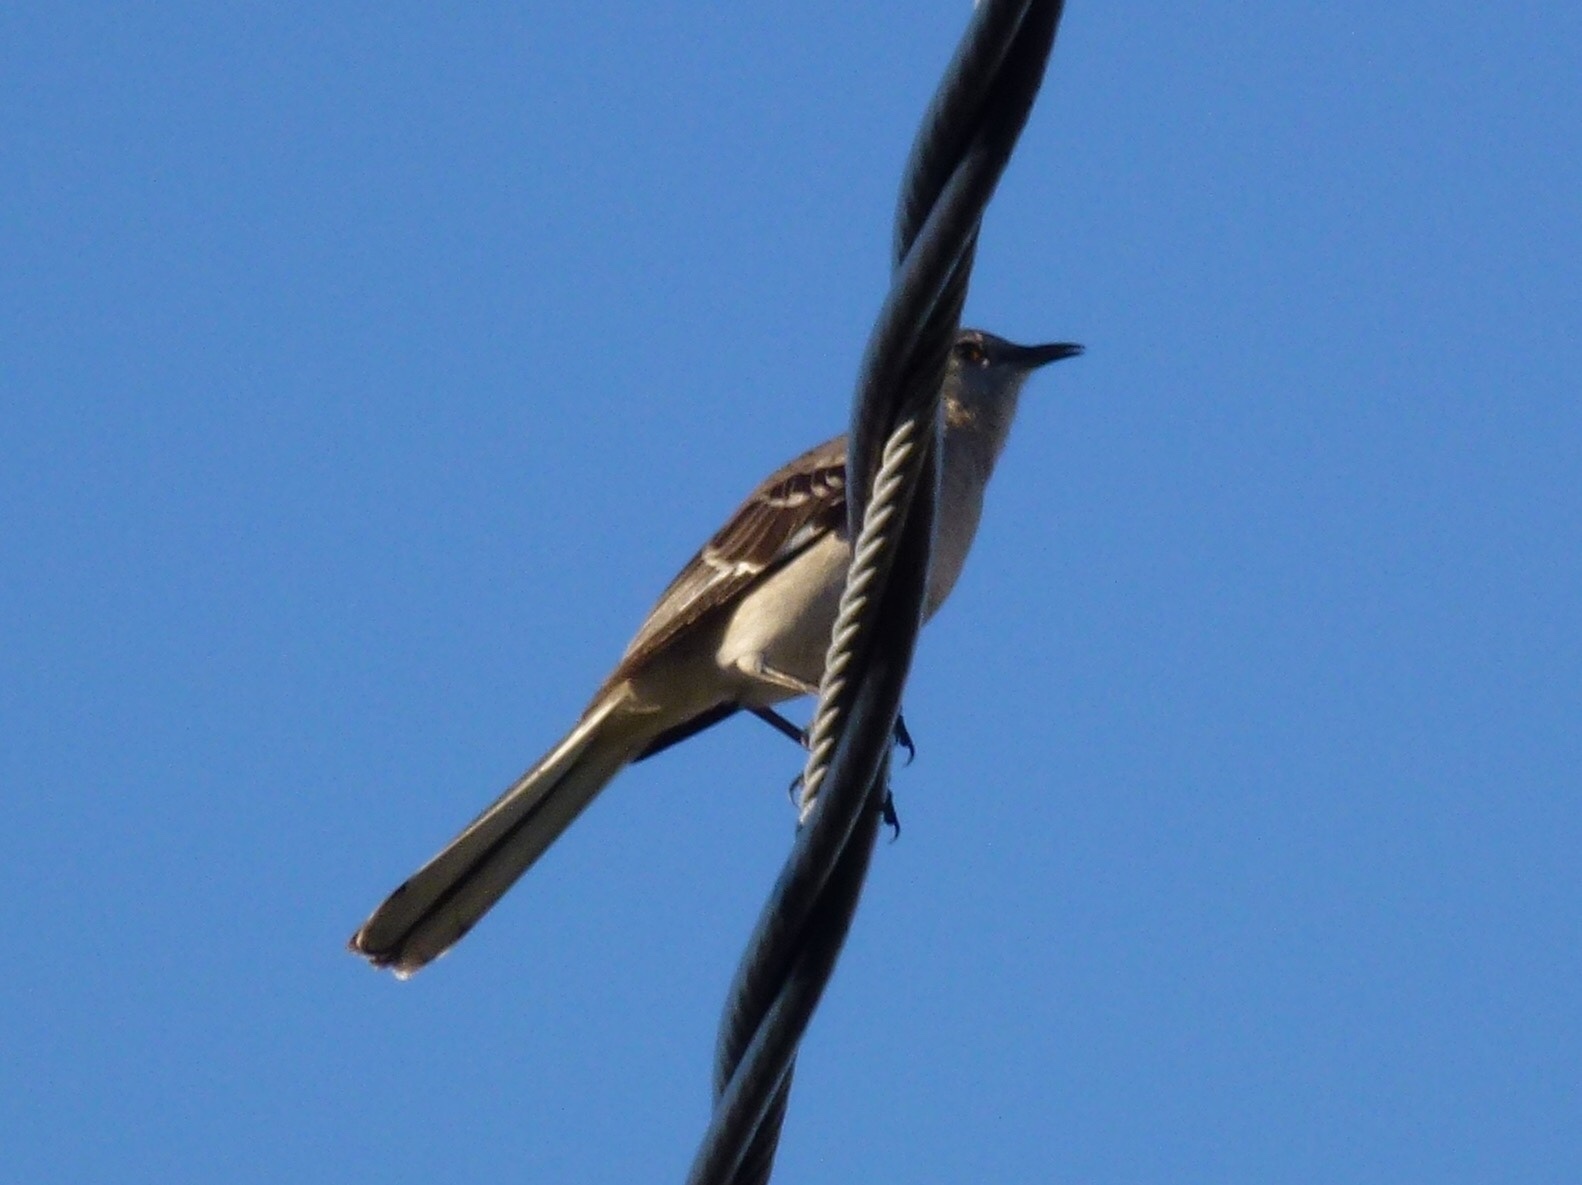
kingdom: Animalia
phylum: Chordata
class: Aves
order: Passeriformes
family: Mimidae
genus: Mimus
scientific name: Mimus polyglottos
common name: Northern mockingbird
